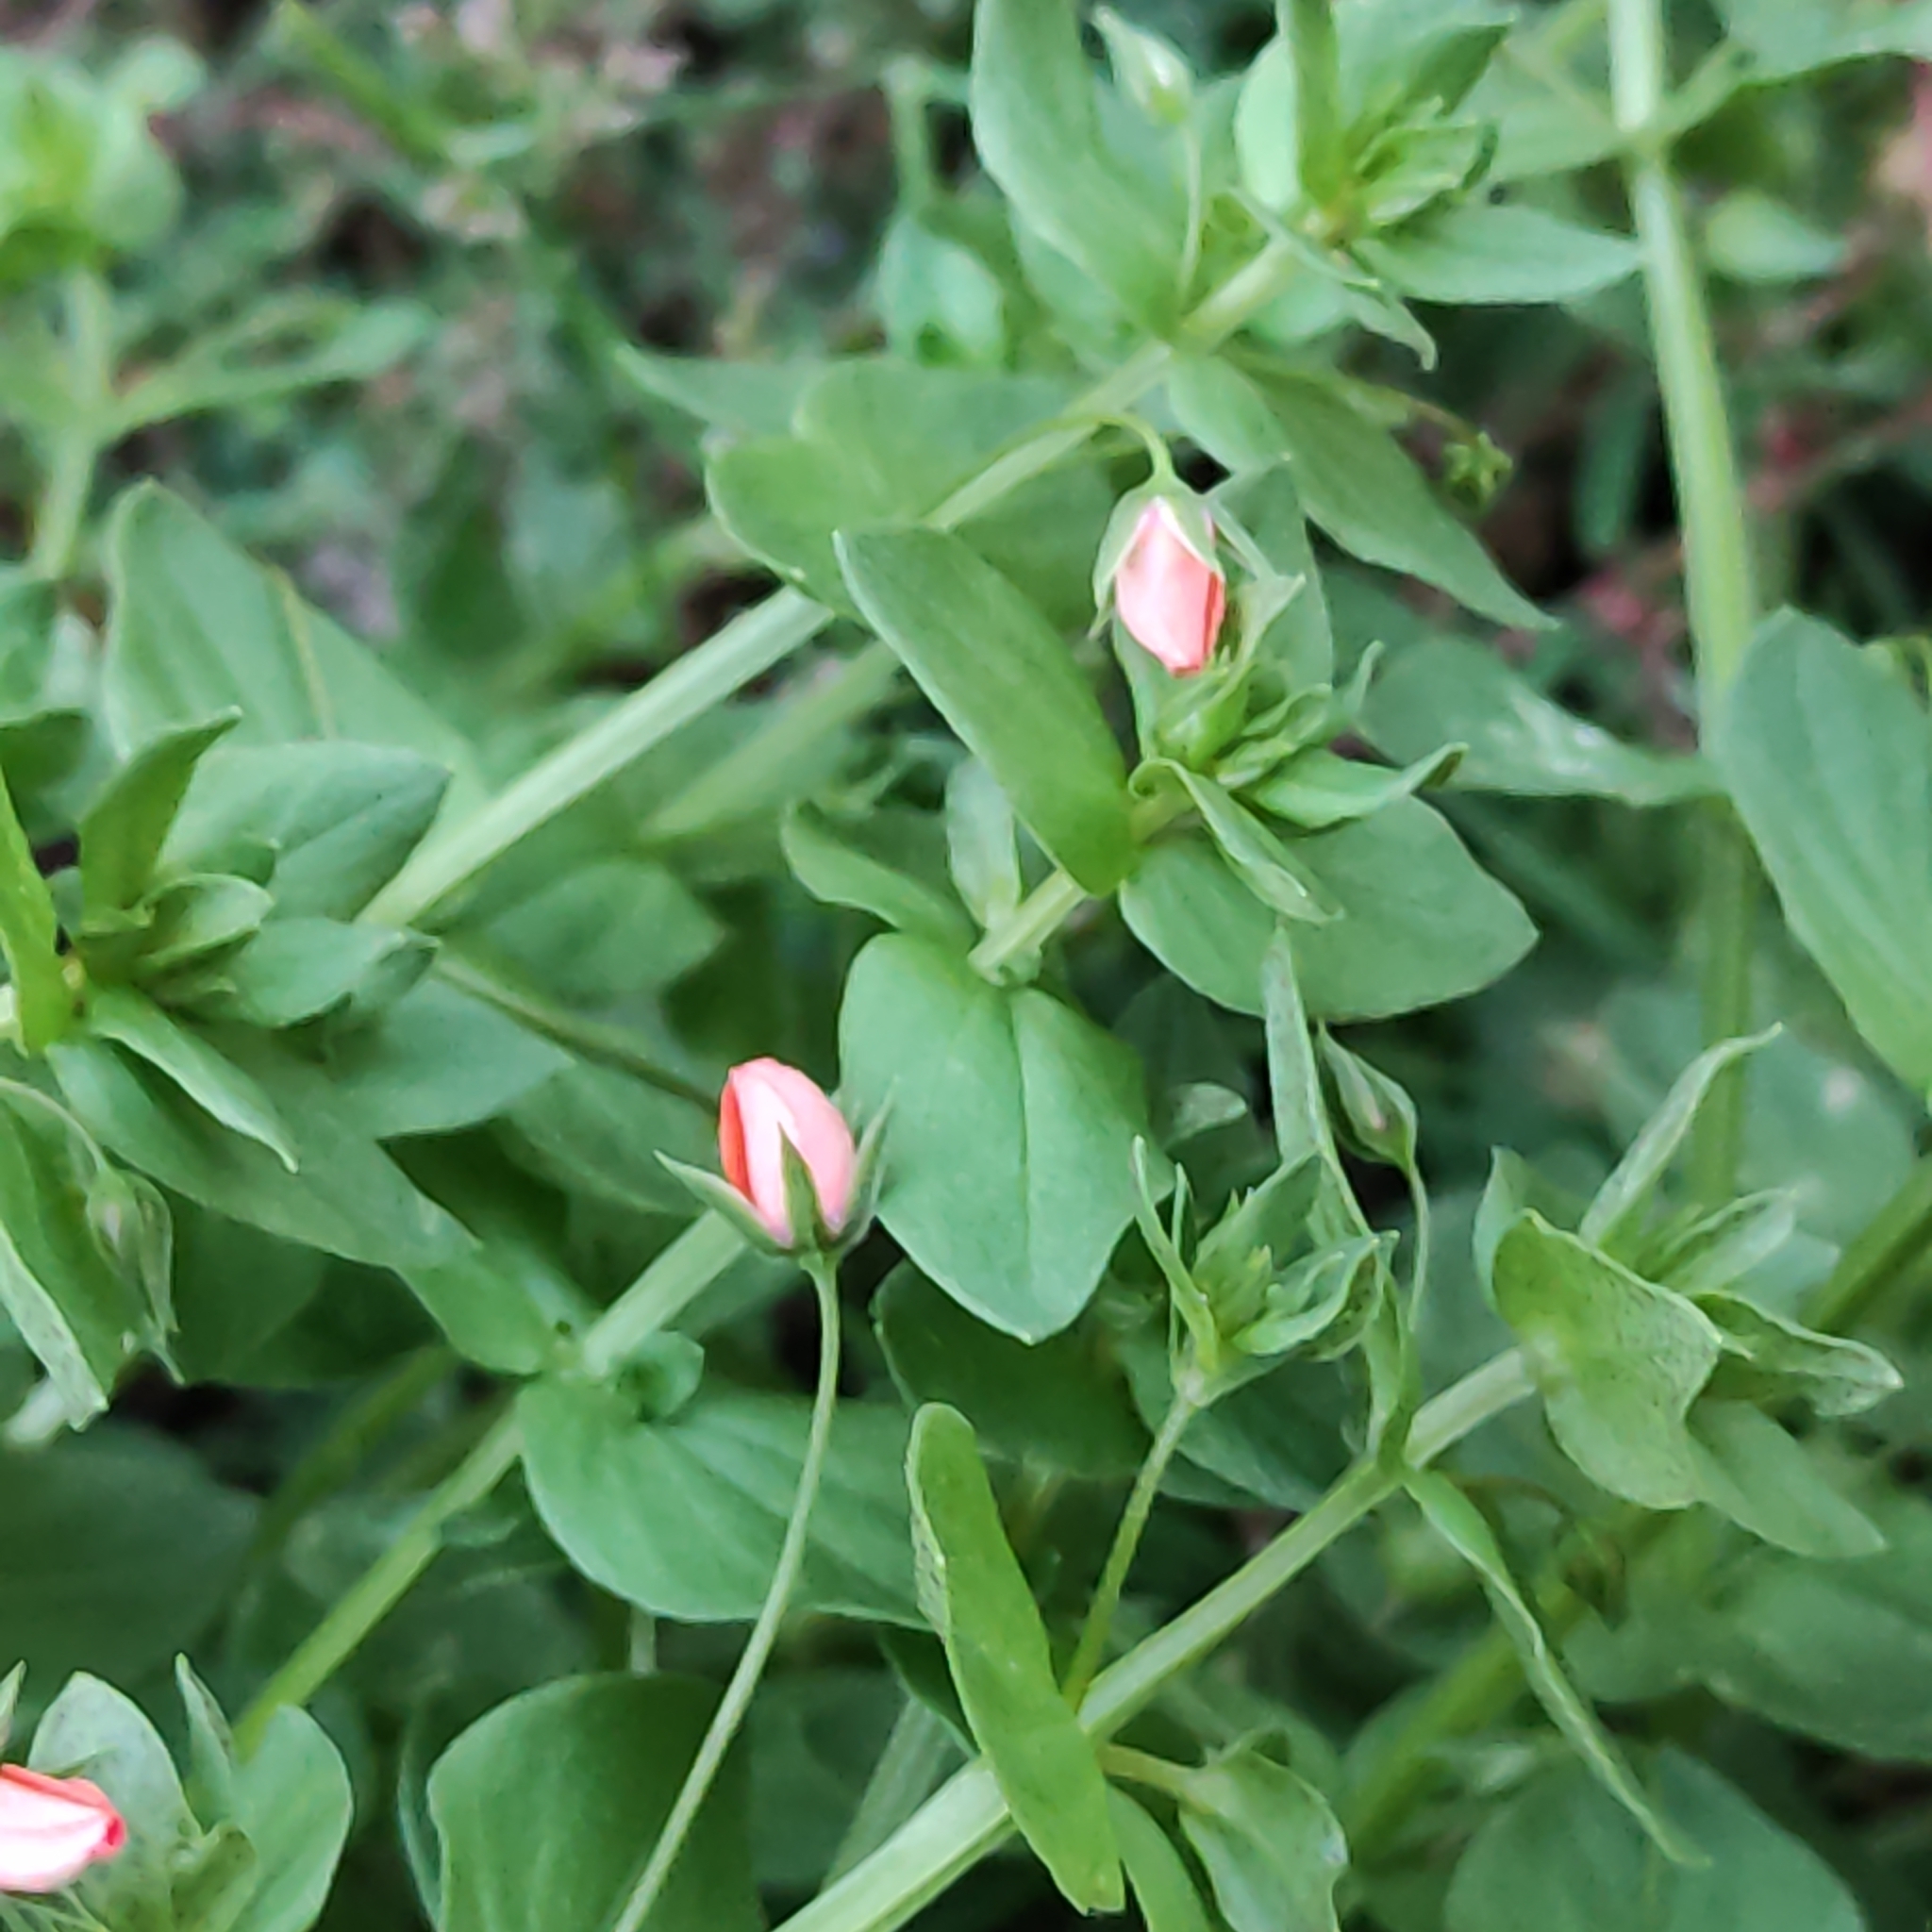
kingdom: Plantae
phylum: Tracheophyta
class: Magnoliopsida
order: Ericales
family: Primulaceae
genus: Lysimachia
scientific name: Lysimachia arvensis
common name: Scarlet pimpernel
